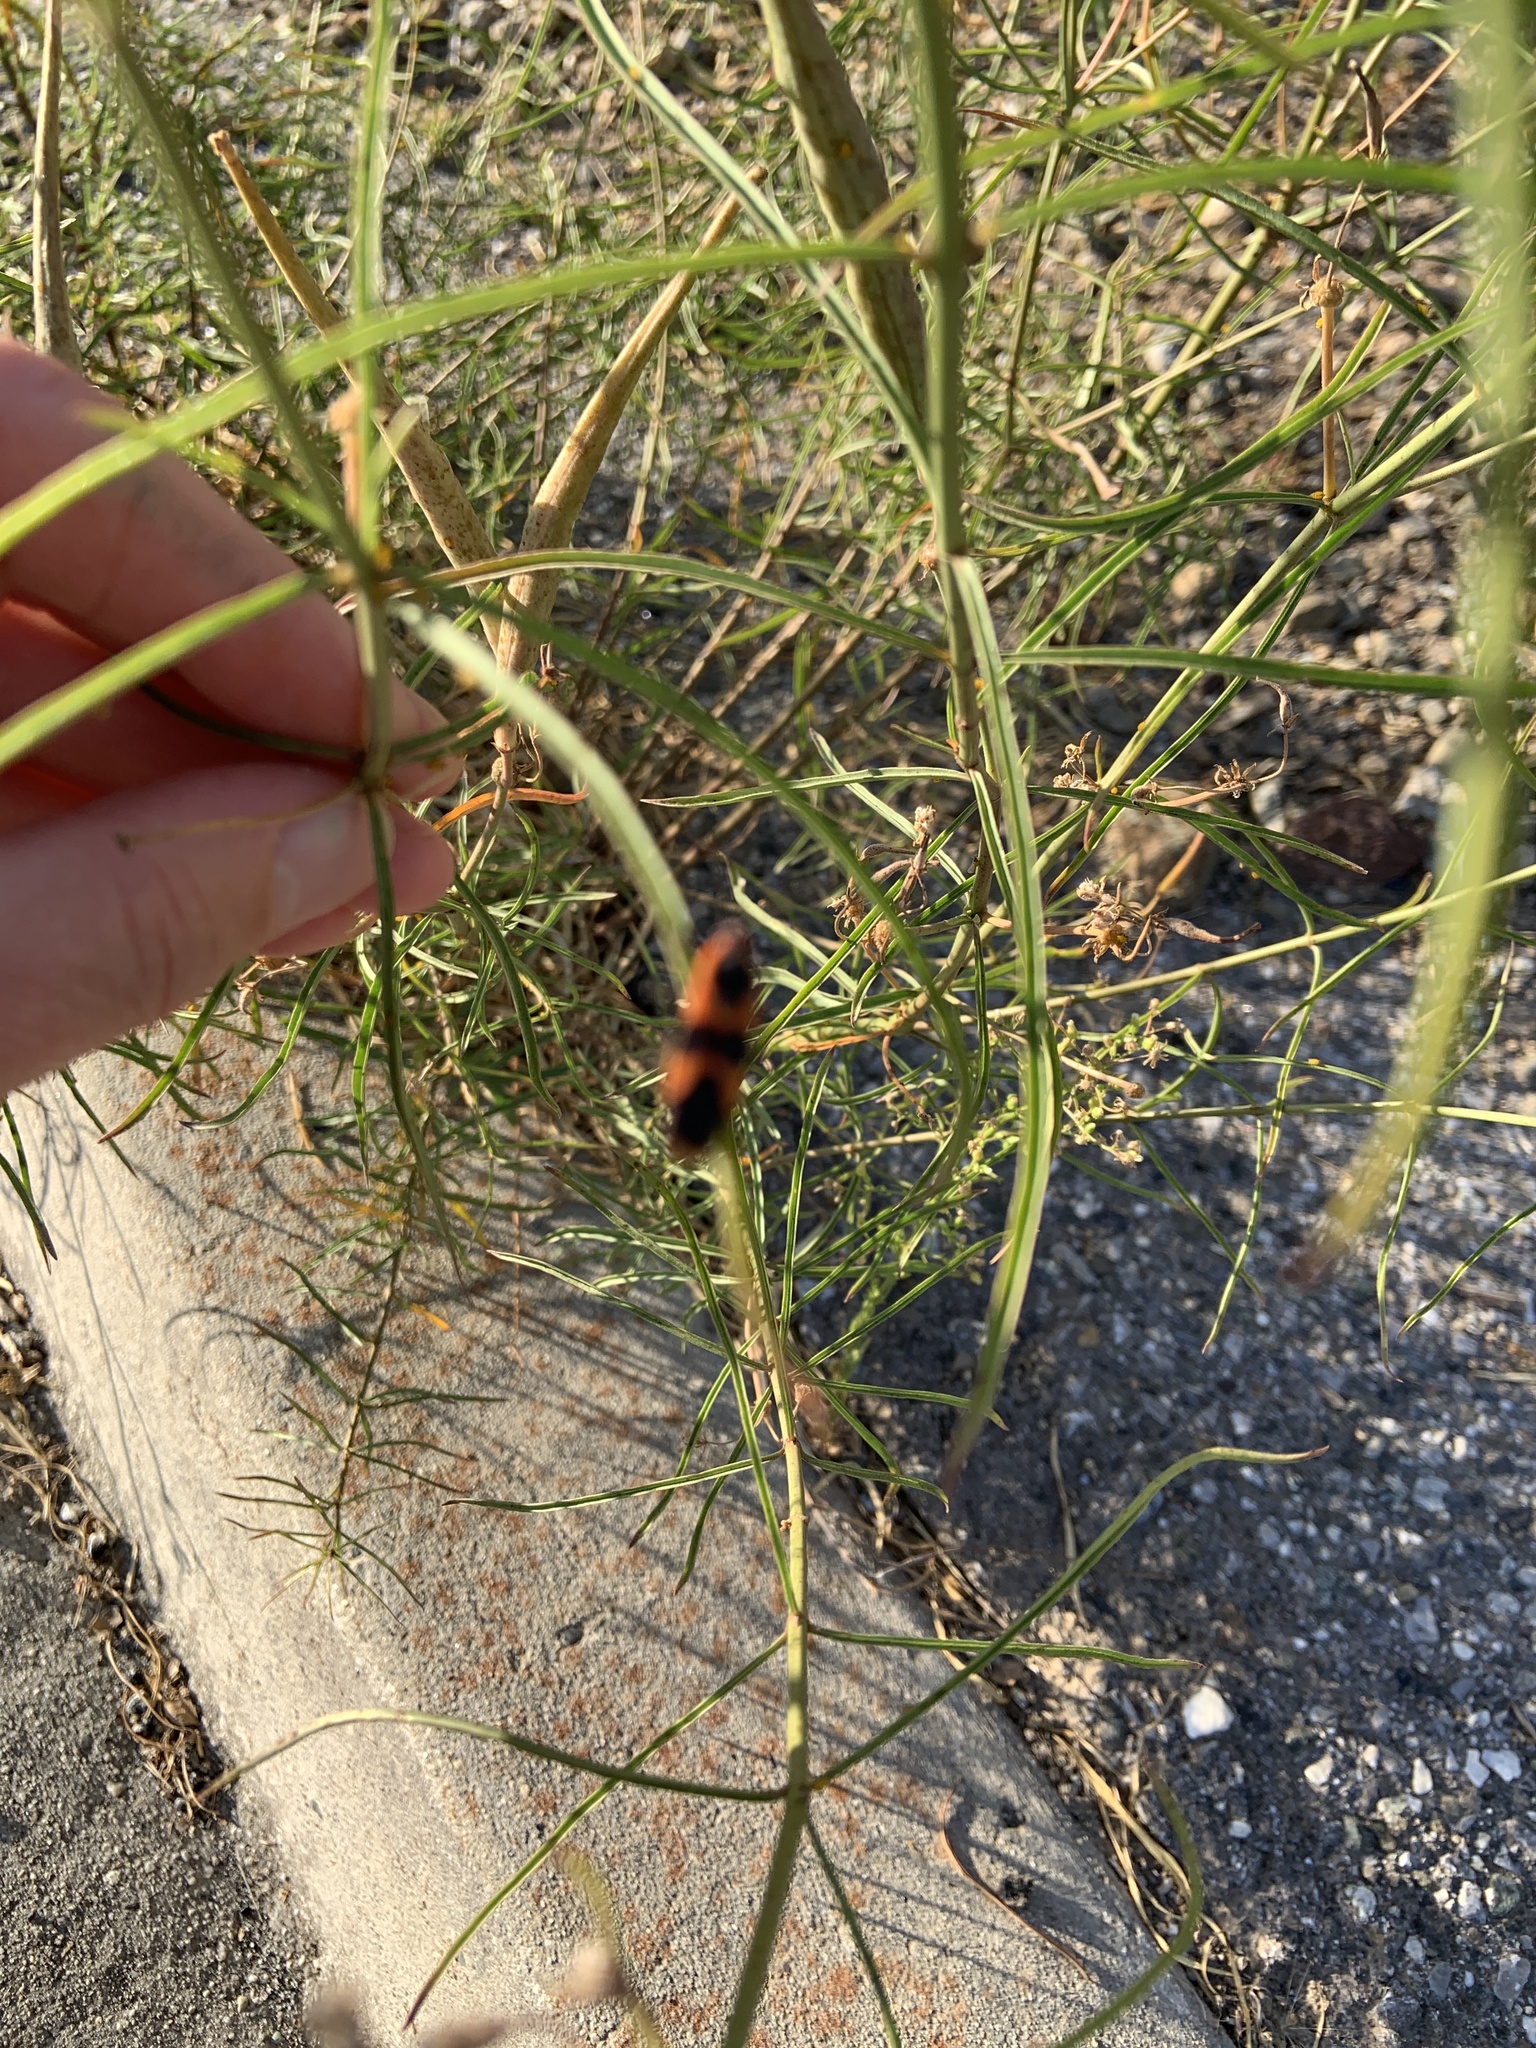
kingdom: Animalia
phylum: Arthropoda
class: Insecta
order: Hemiptera
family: Lygaeidae
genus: Oncopeltus
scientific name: Oncopeltus fasciatus
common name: Large milkweed bug
